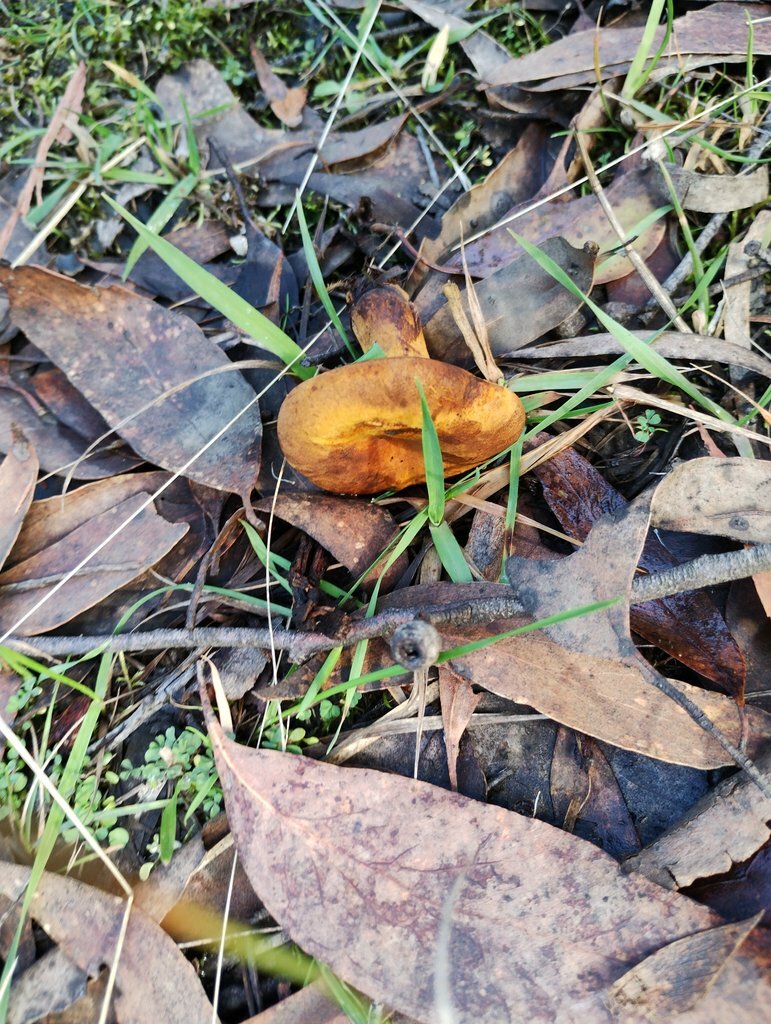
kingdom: Fungi
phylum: Basidiomycota
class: Agaricomycetes
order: Boletales
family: Serpulaceae
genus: Austropaxillus
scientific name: Austropaxillus infundibuliformis
